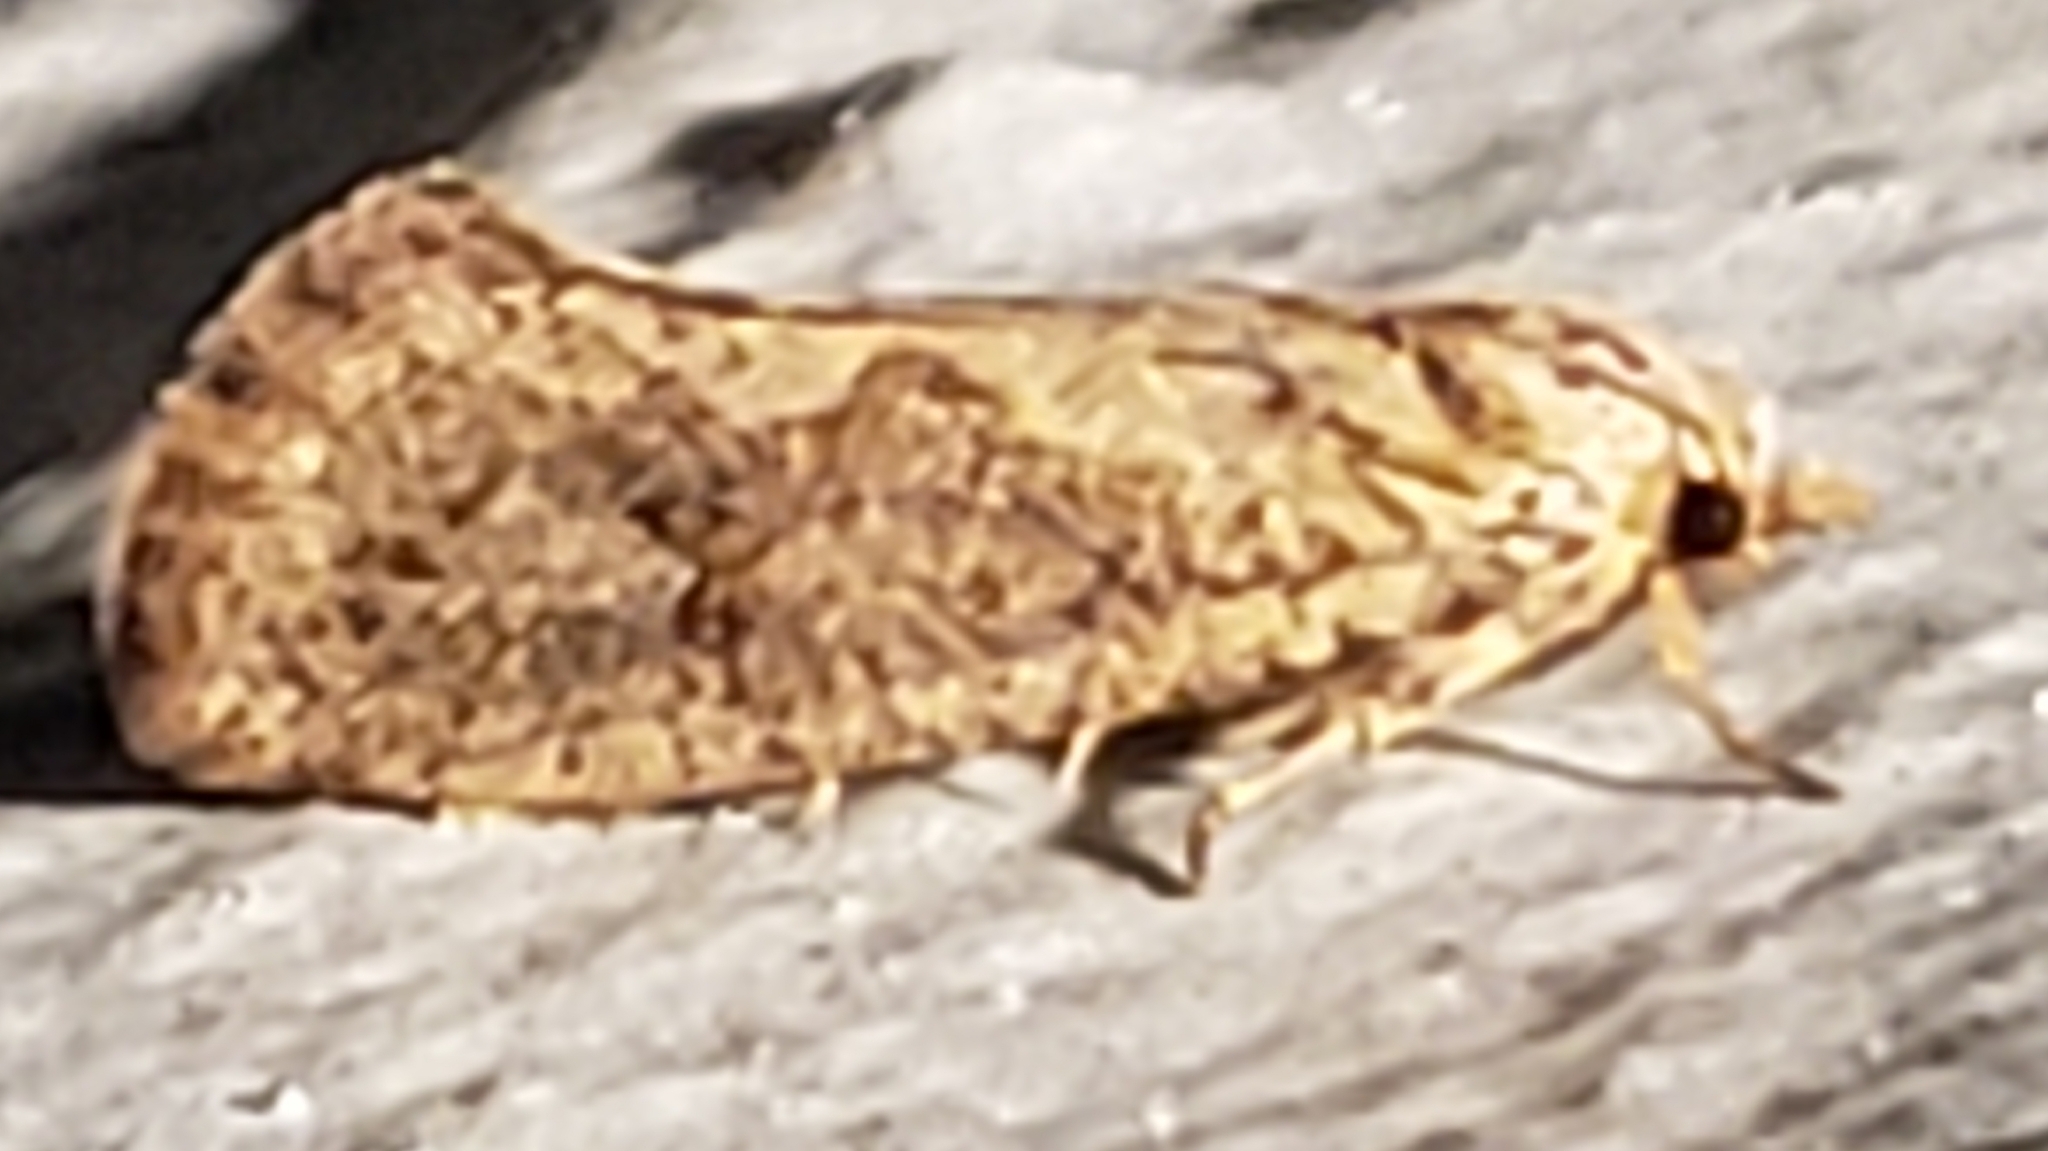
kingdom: Animalia
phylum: Arthropoda
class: Insecta
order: Lepidoptera
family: Tineidae
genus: Acrolophus
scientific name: Acrolophus walsinghami
